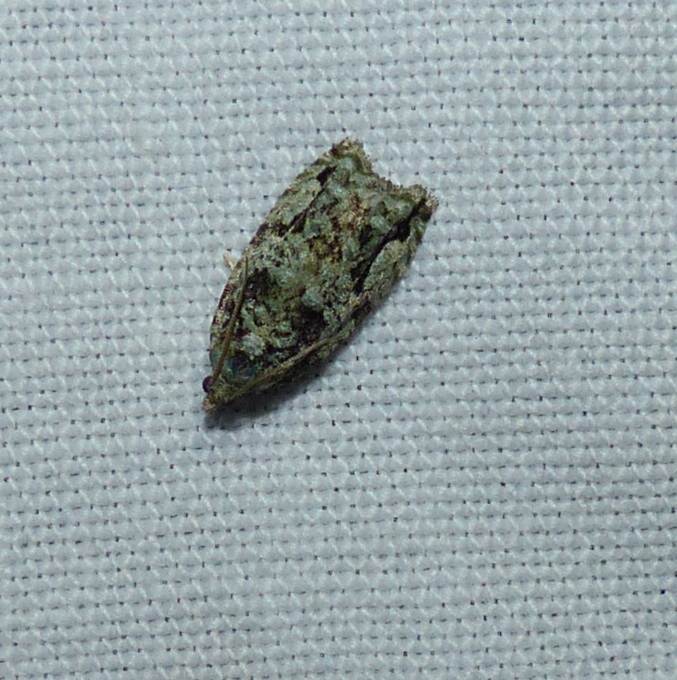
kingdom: Animalia
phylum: Arthropoda
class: Insecta
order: Lepidoptera
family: Tortricidae
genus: Proteoteras
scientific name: Proteoteras moffatiana
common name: Maple bud borer moth
